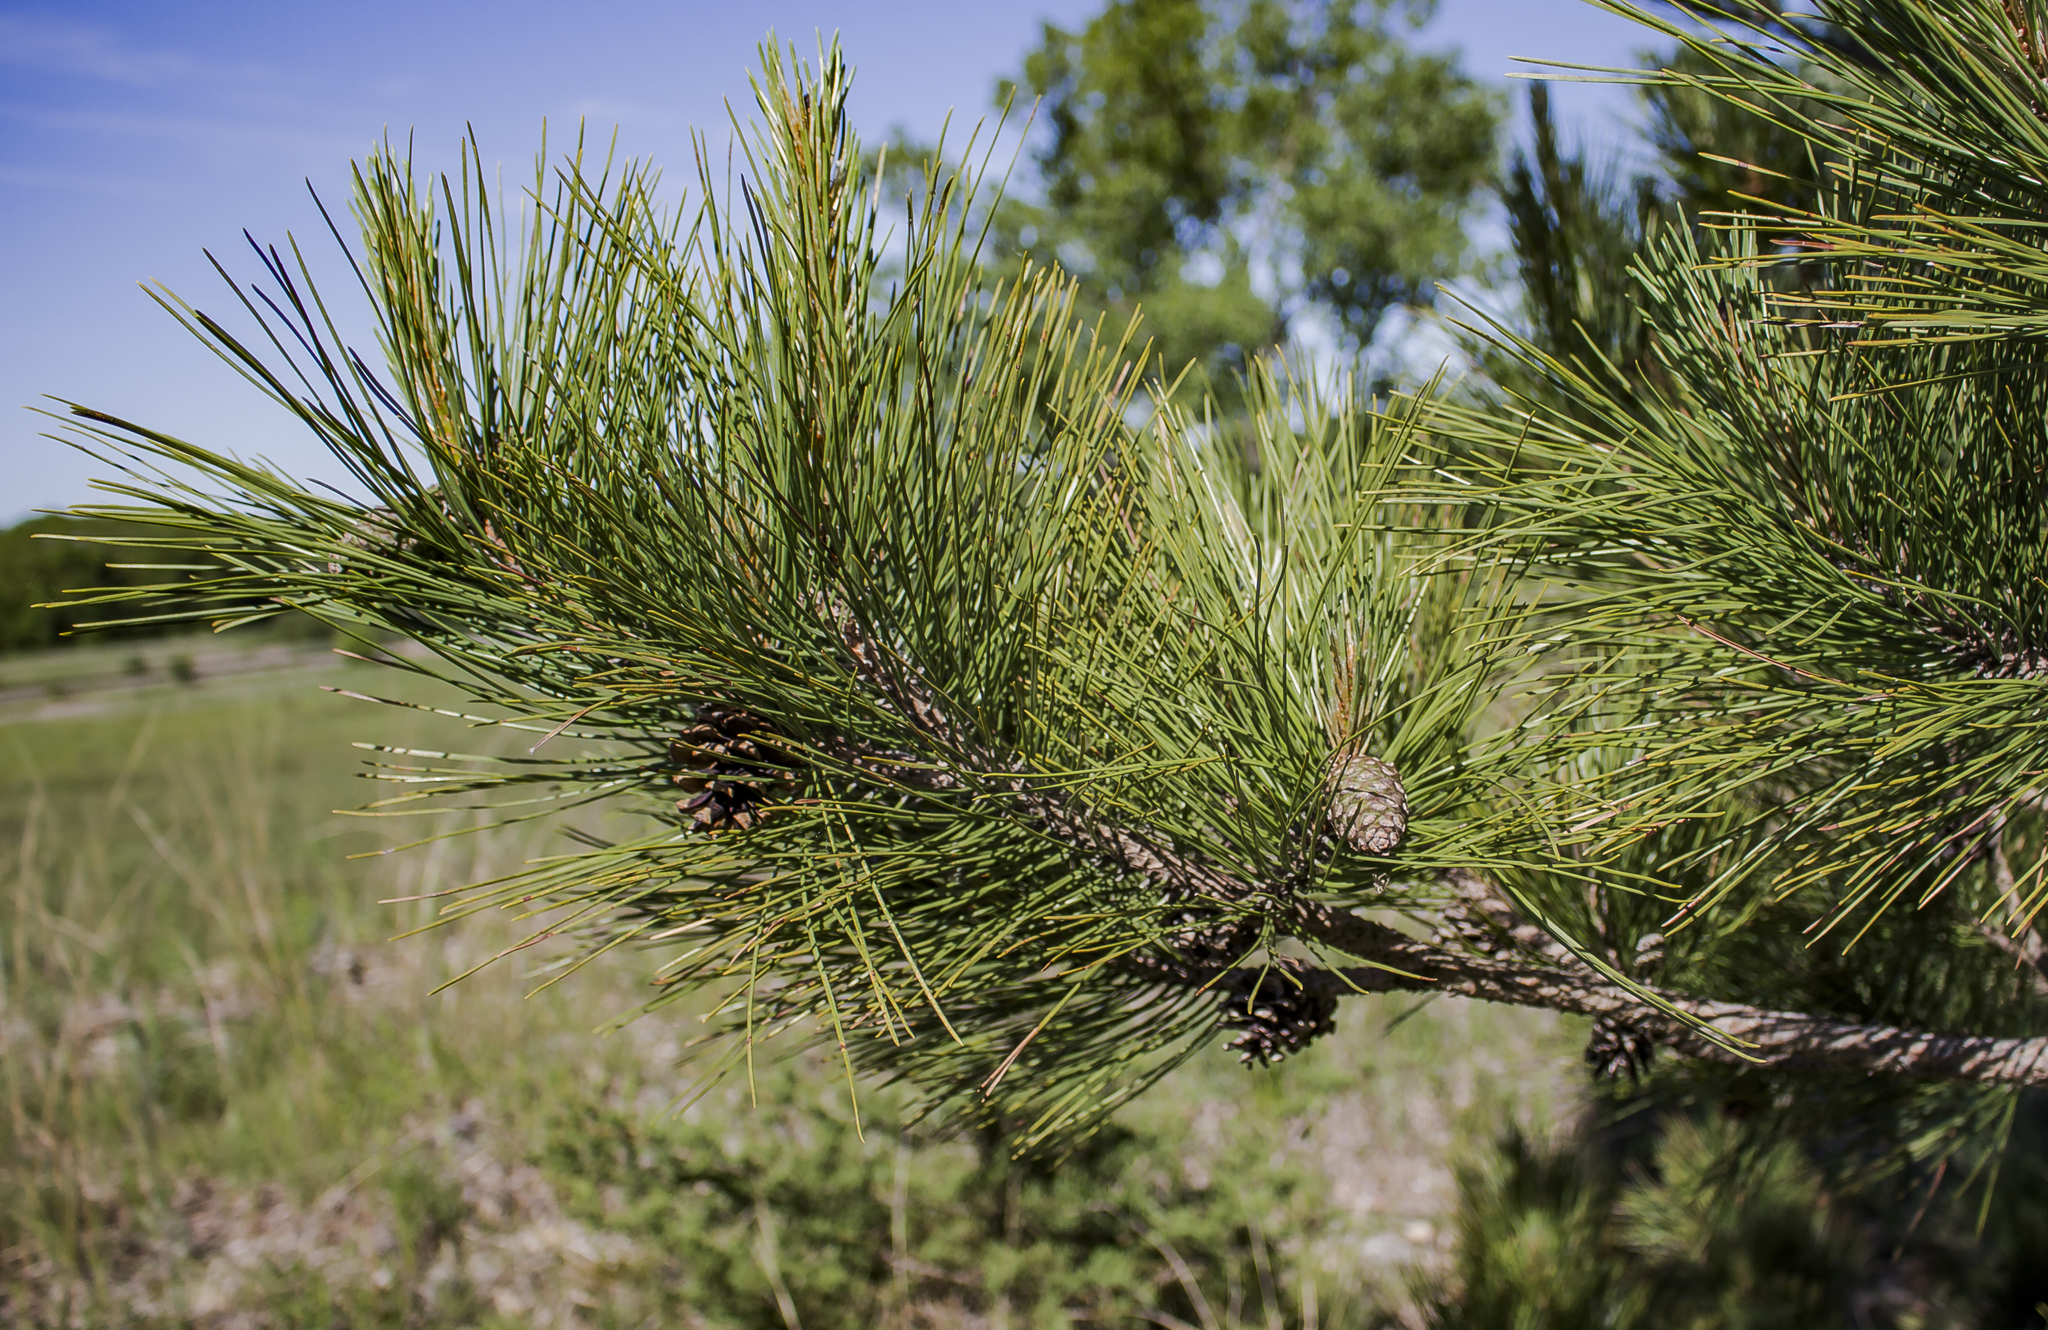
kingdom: Plantae
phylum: Tracheophyta
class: Pinopsida
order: Pinales
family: Pinaceae
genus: Pinus
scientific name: Pinus resinosa
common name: Norway pine
